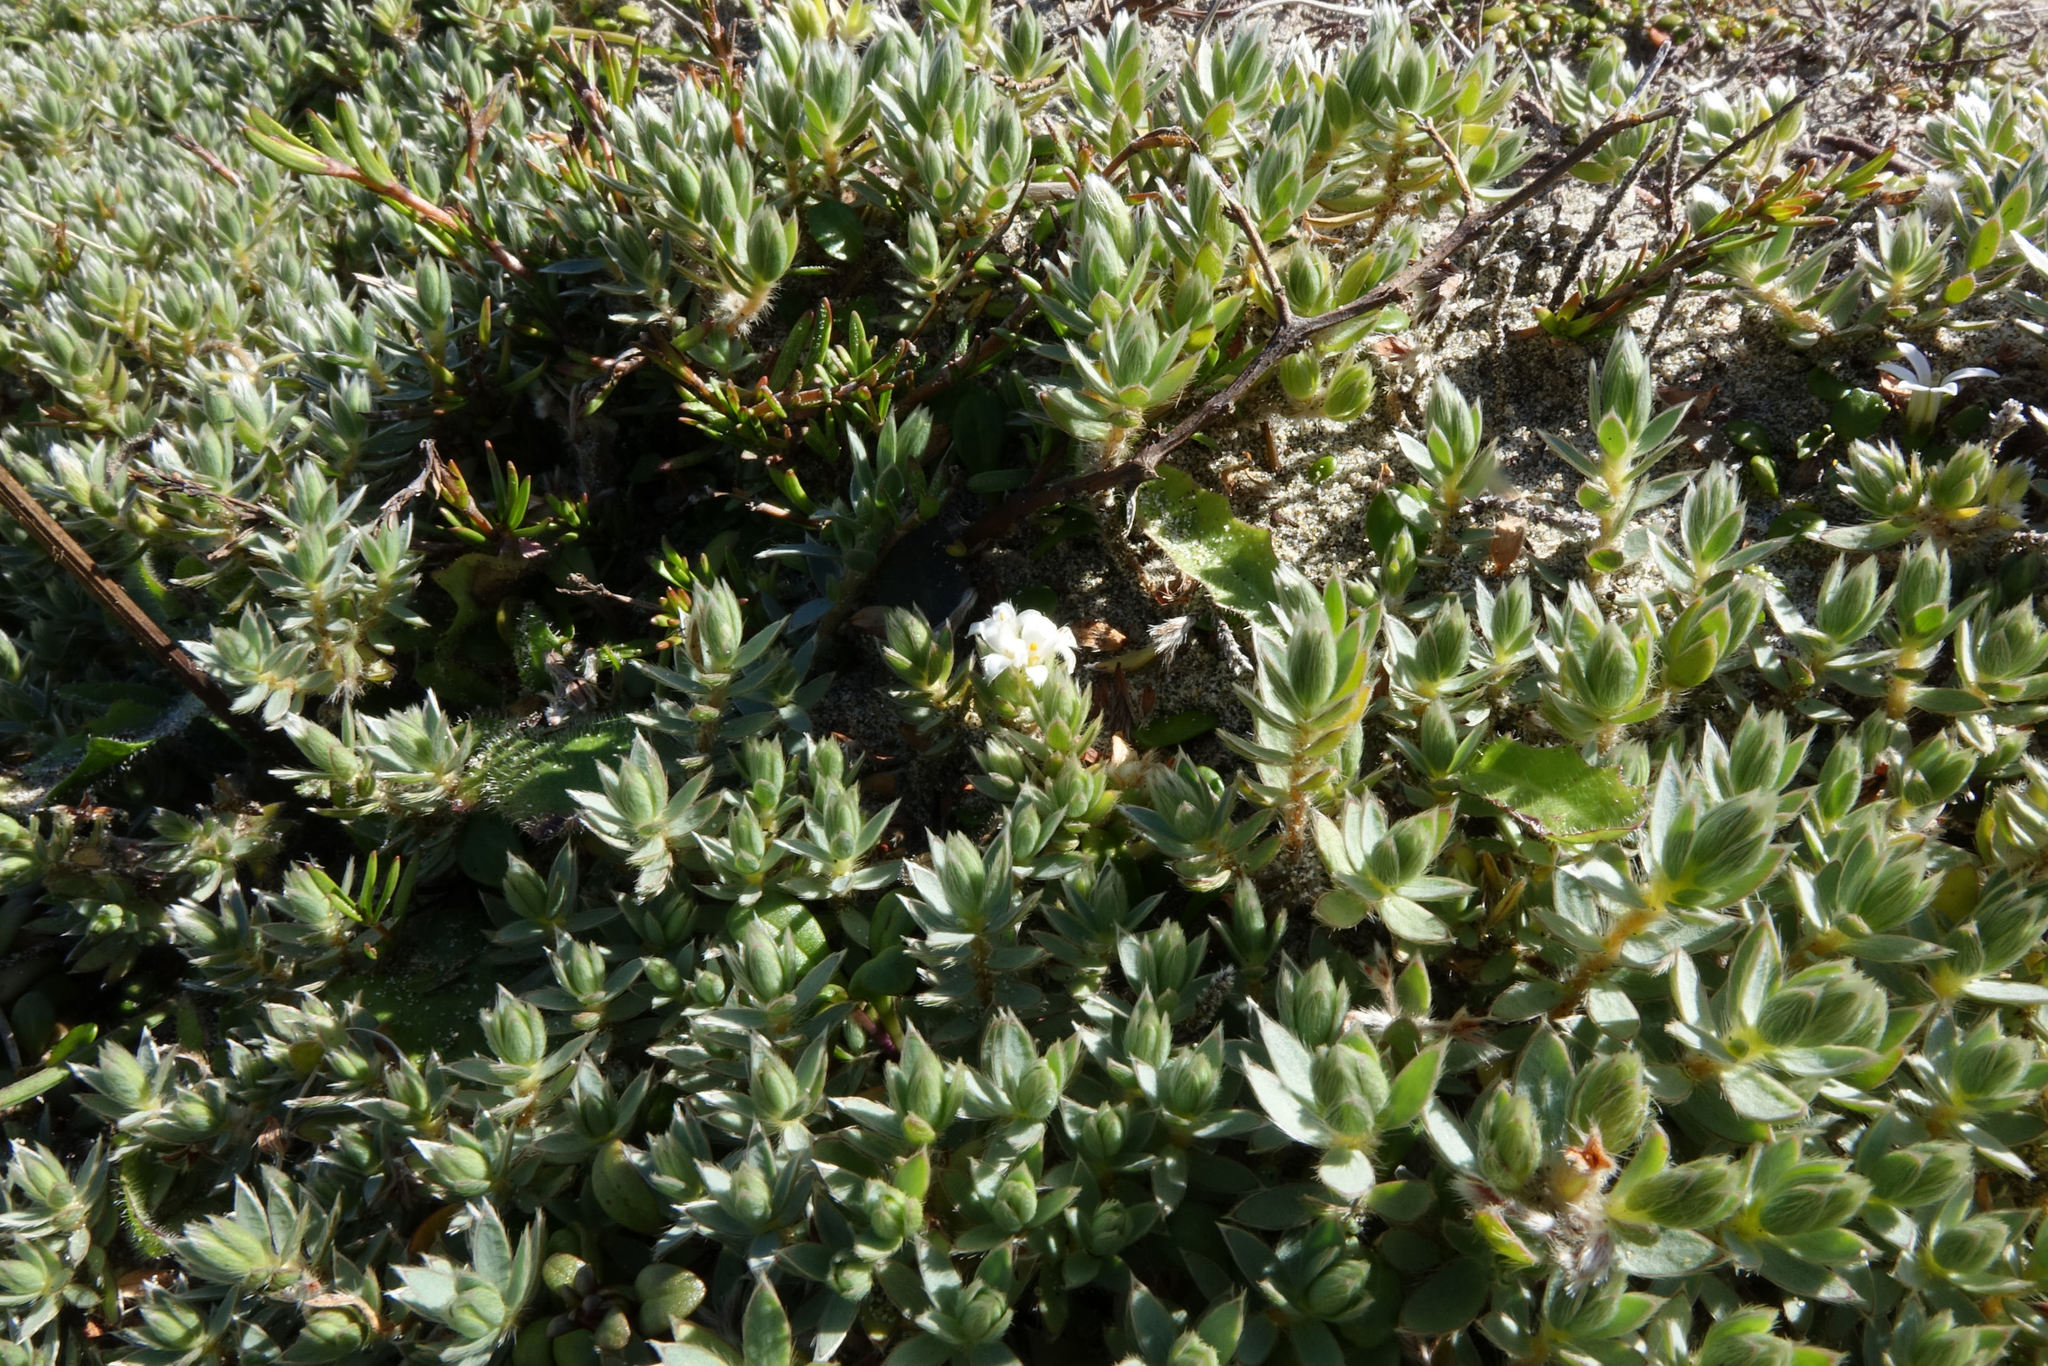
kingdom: Plantae
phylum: Tracheophyta
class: Magnoliopsida
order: Malvales
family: Thymelaeaceae
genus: Pimelea
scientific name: Pimelea lyallii
